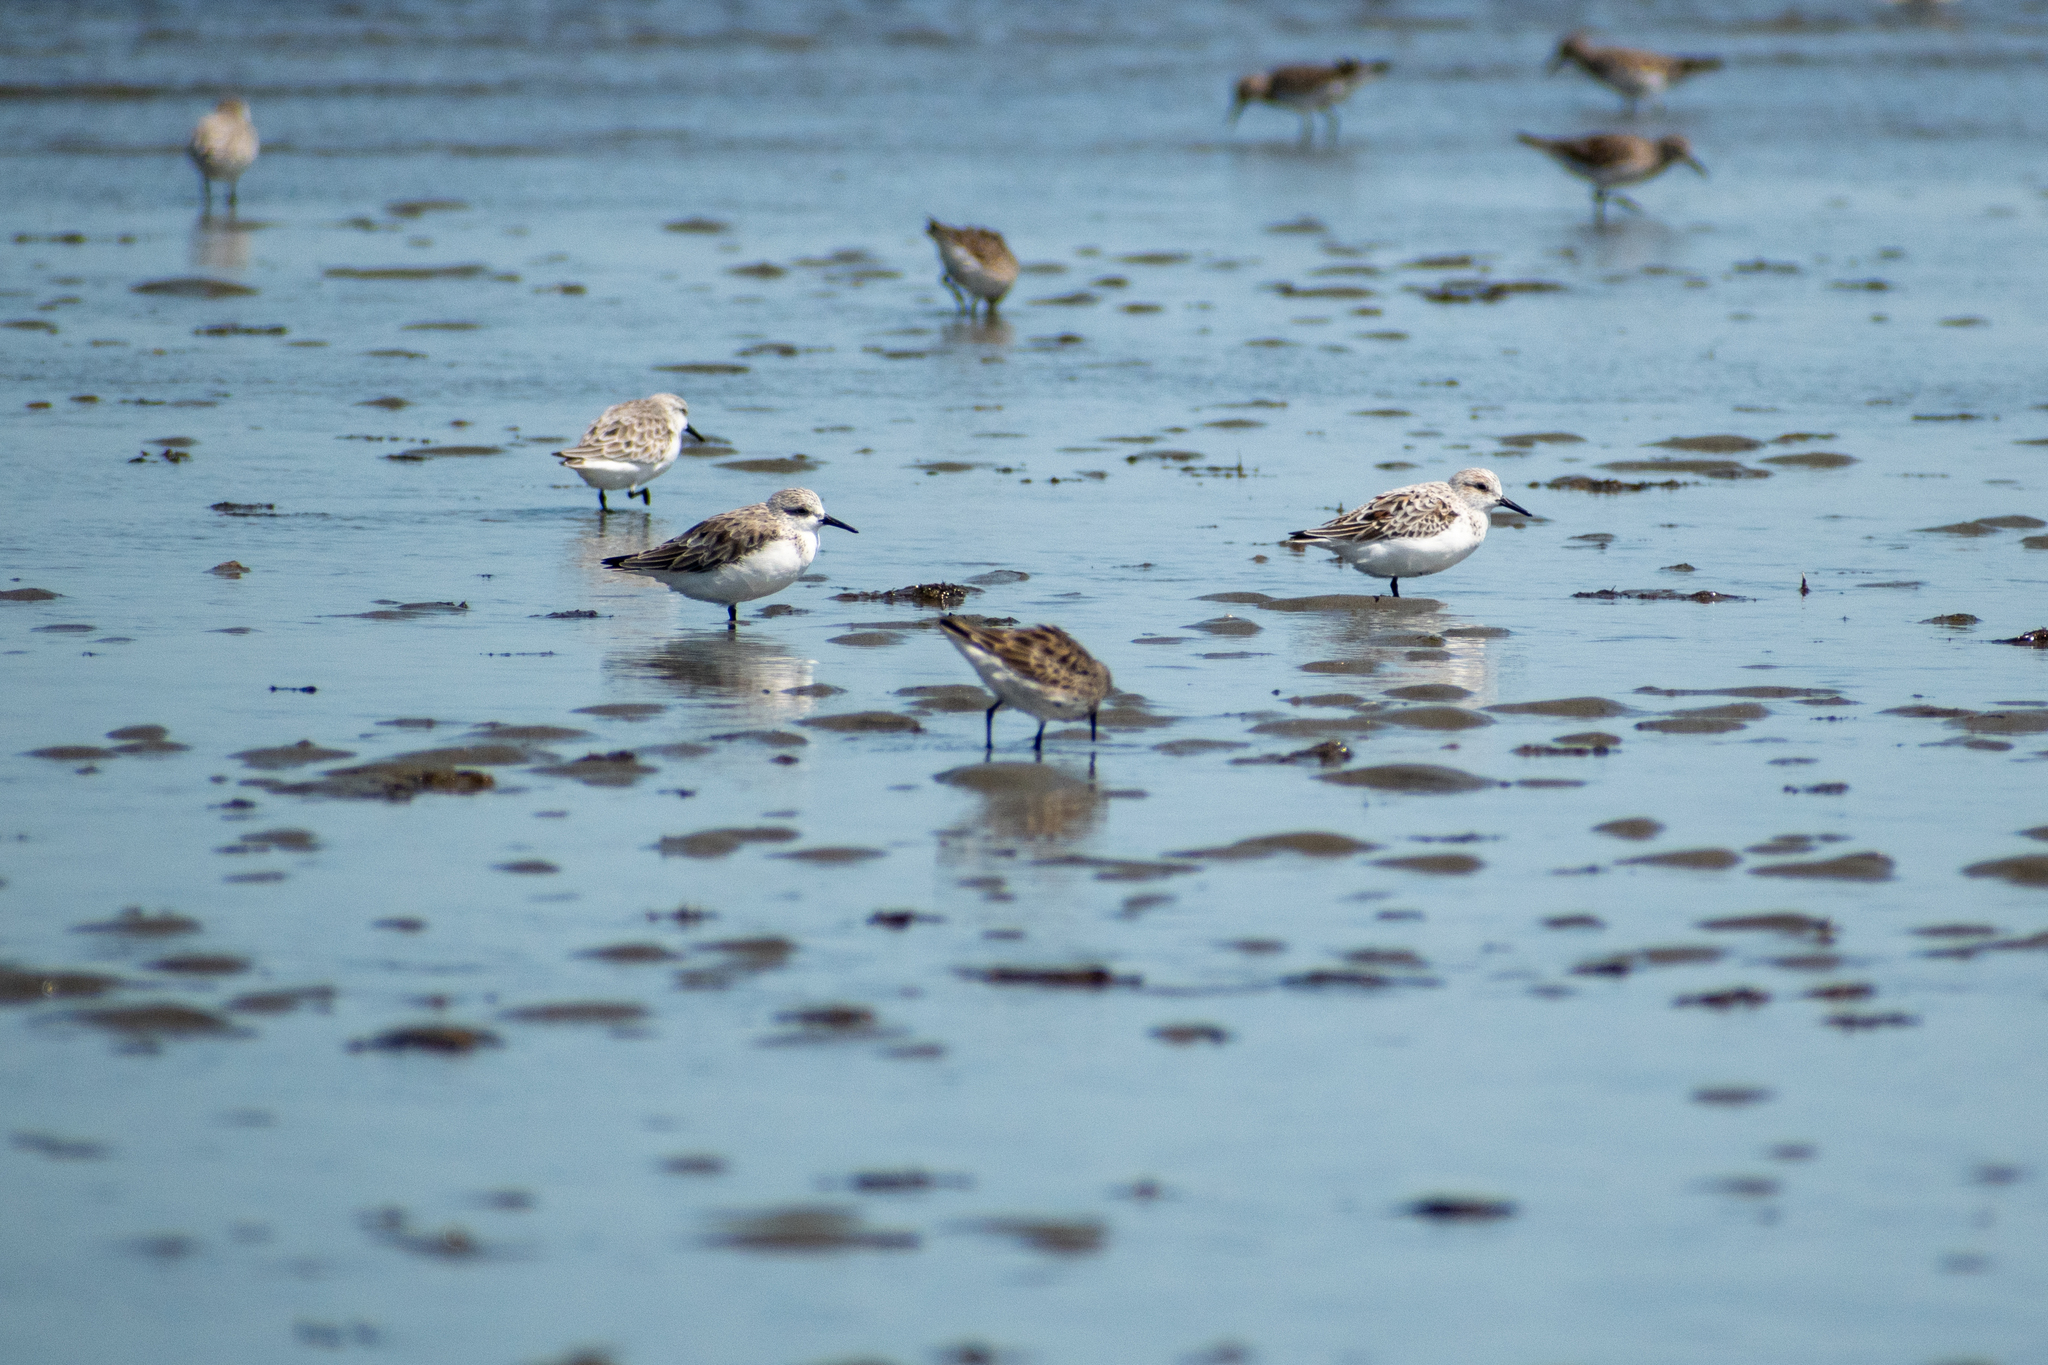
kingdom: Animalia
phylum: Chordata
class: Aves
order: Charadriiformes
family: Scolopacidae
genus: Calidris
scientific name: Calidris alba
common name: Sanderling
